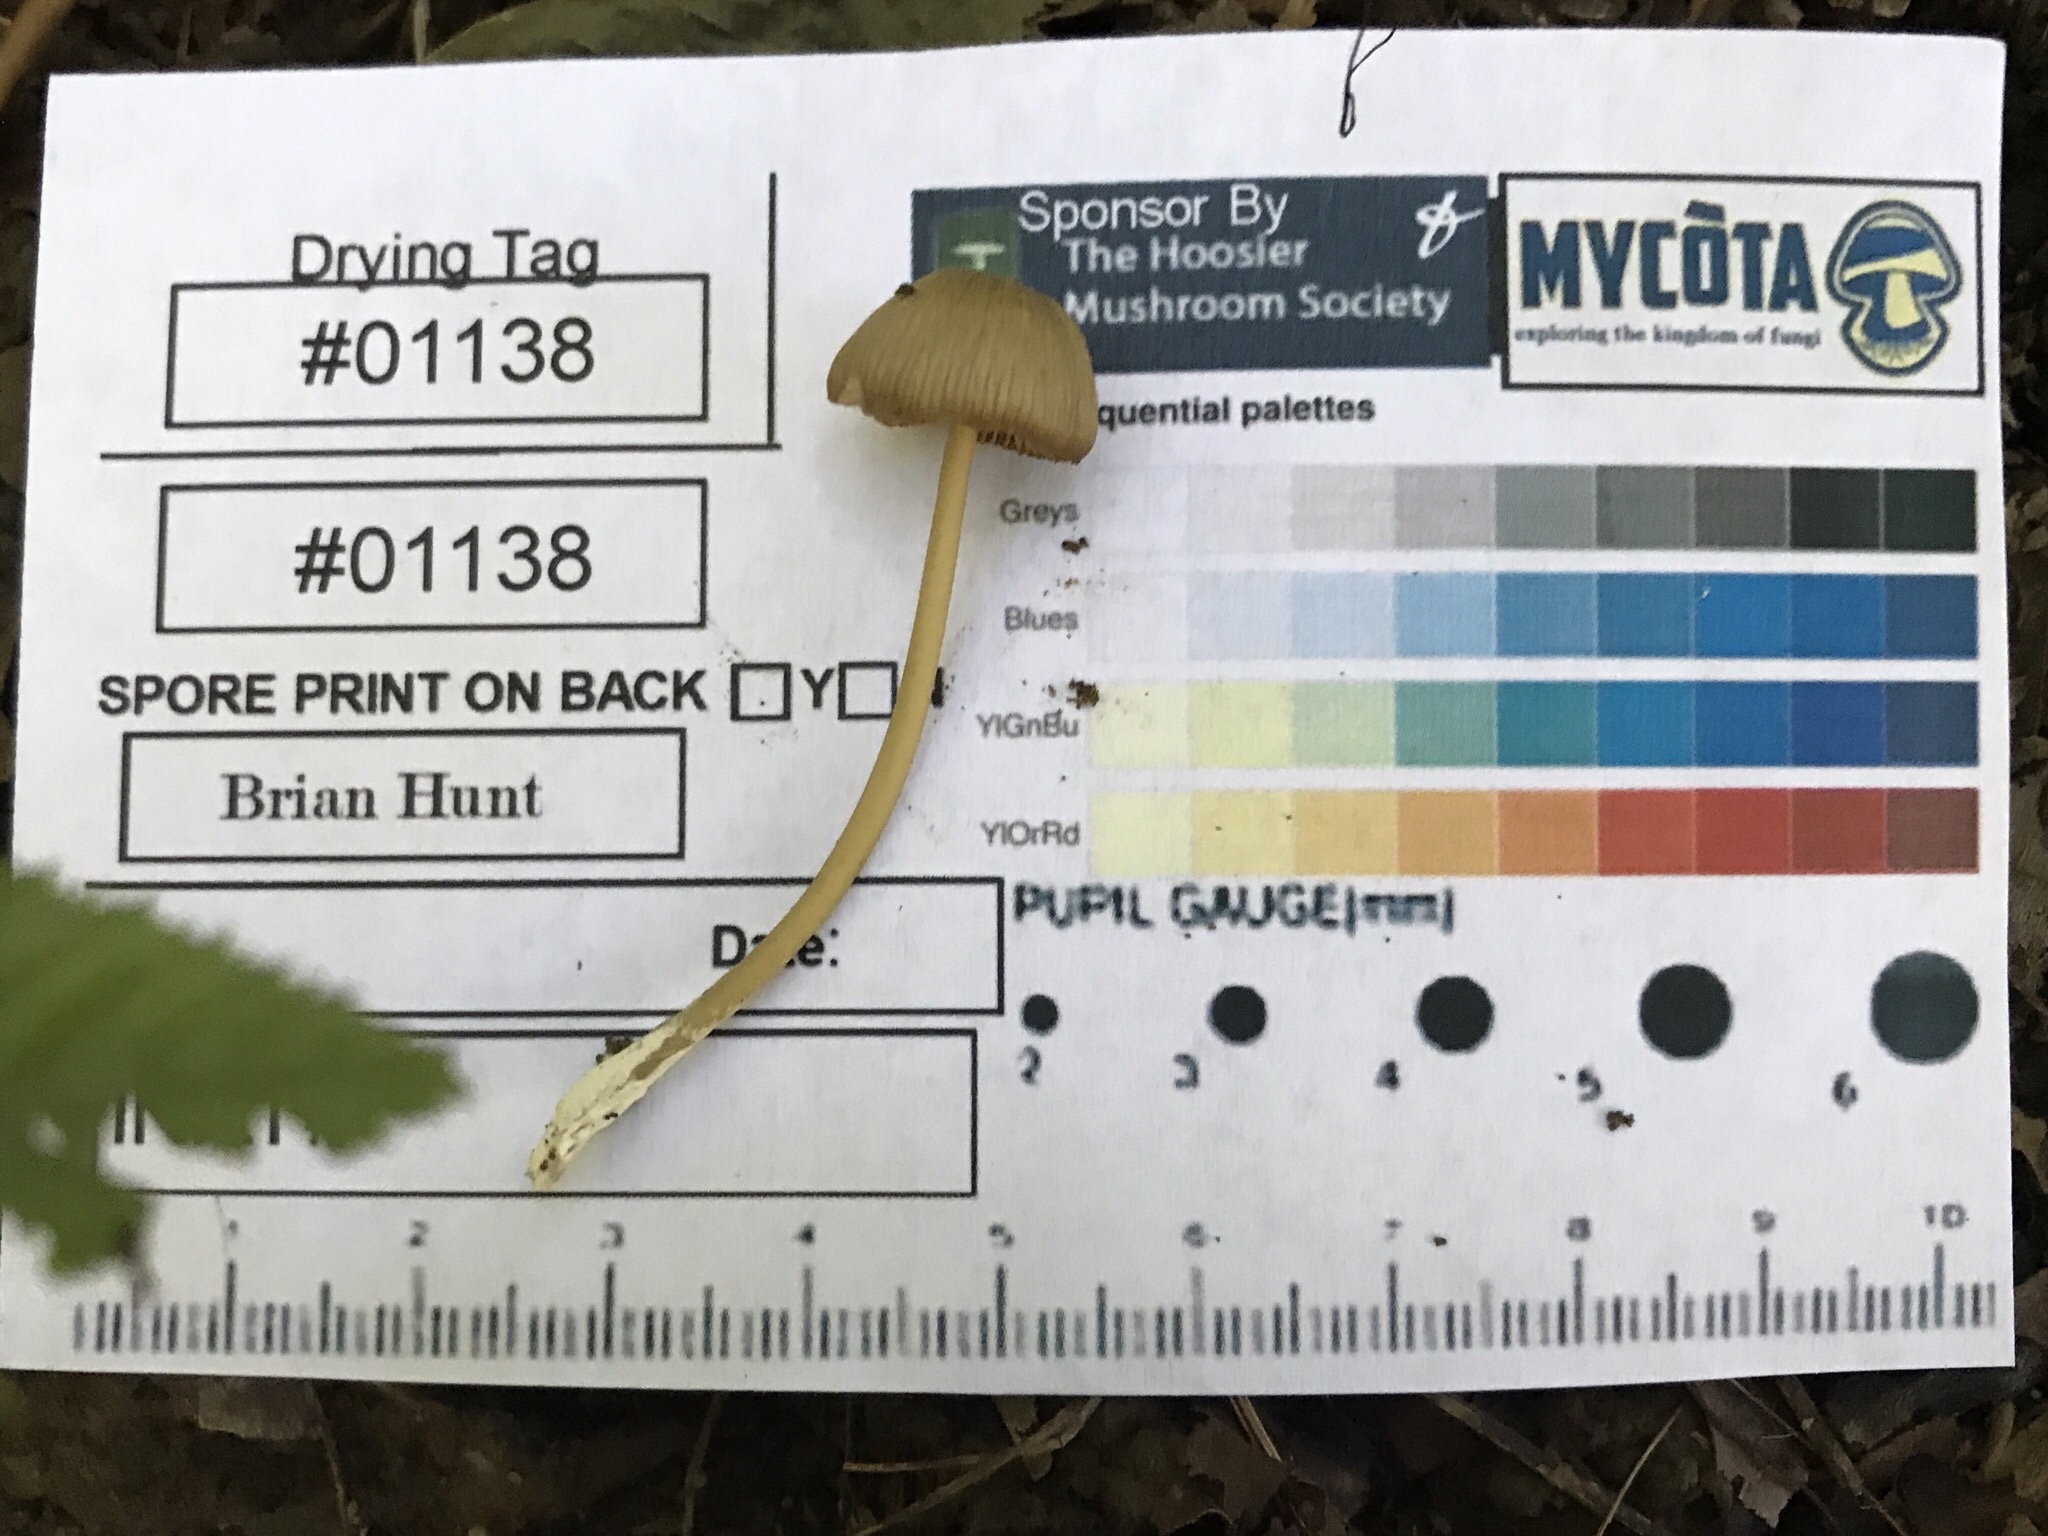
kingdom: Fungi
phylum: Basidiomycota
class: Agaricomycetes
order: Agaricales
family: Entolomataceae
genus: Entoloma
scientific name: Entoloma olivaceomarginatum
